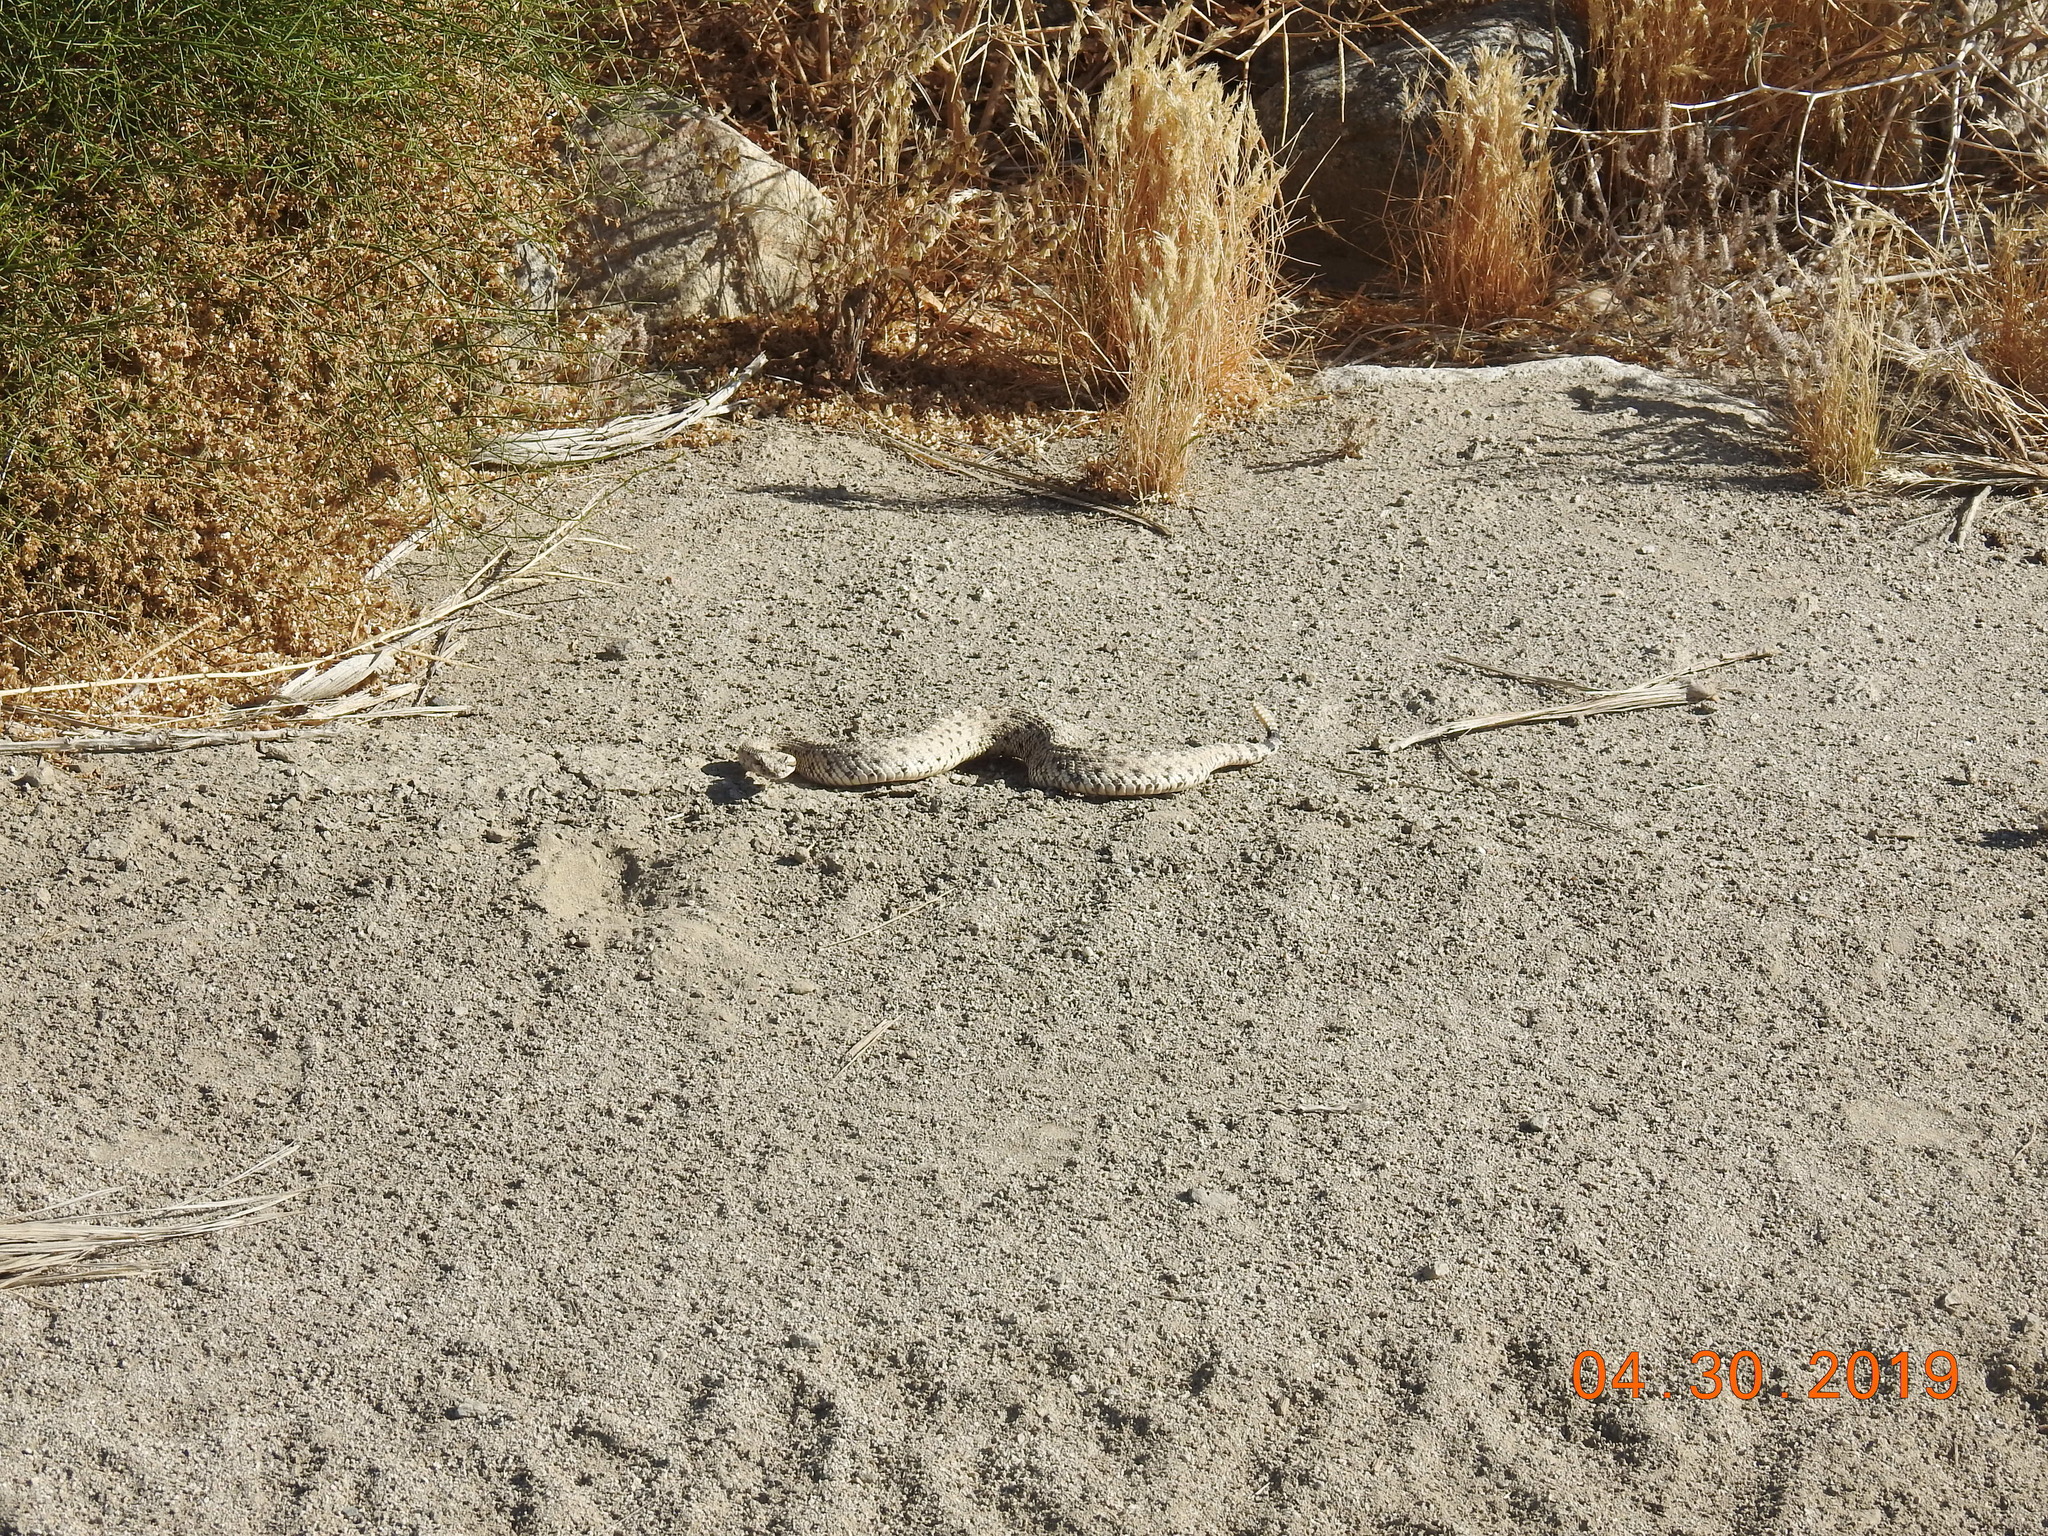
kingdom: Animalia
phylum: Chordata
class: Squamata
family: Viperidae
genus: Crotalus
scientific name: Crotalus cerastes
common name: Sidewinder
